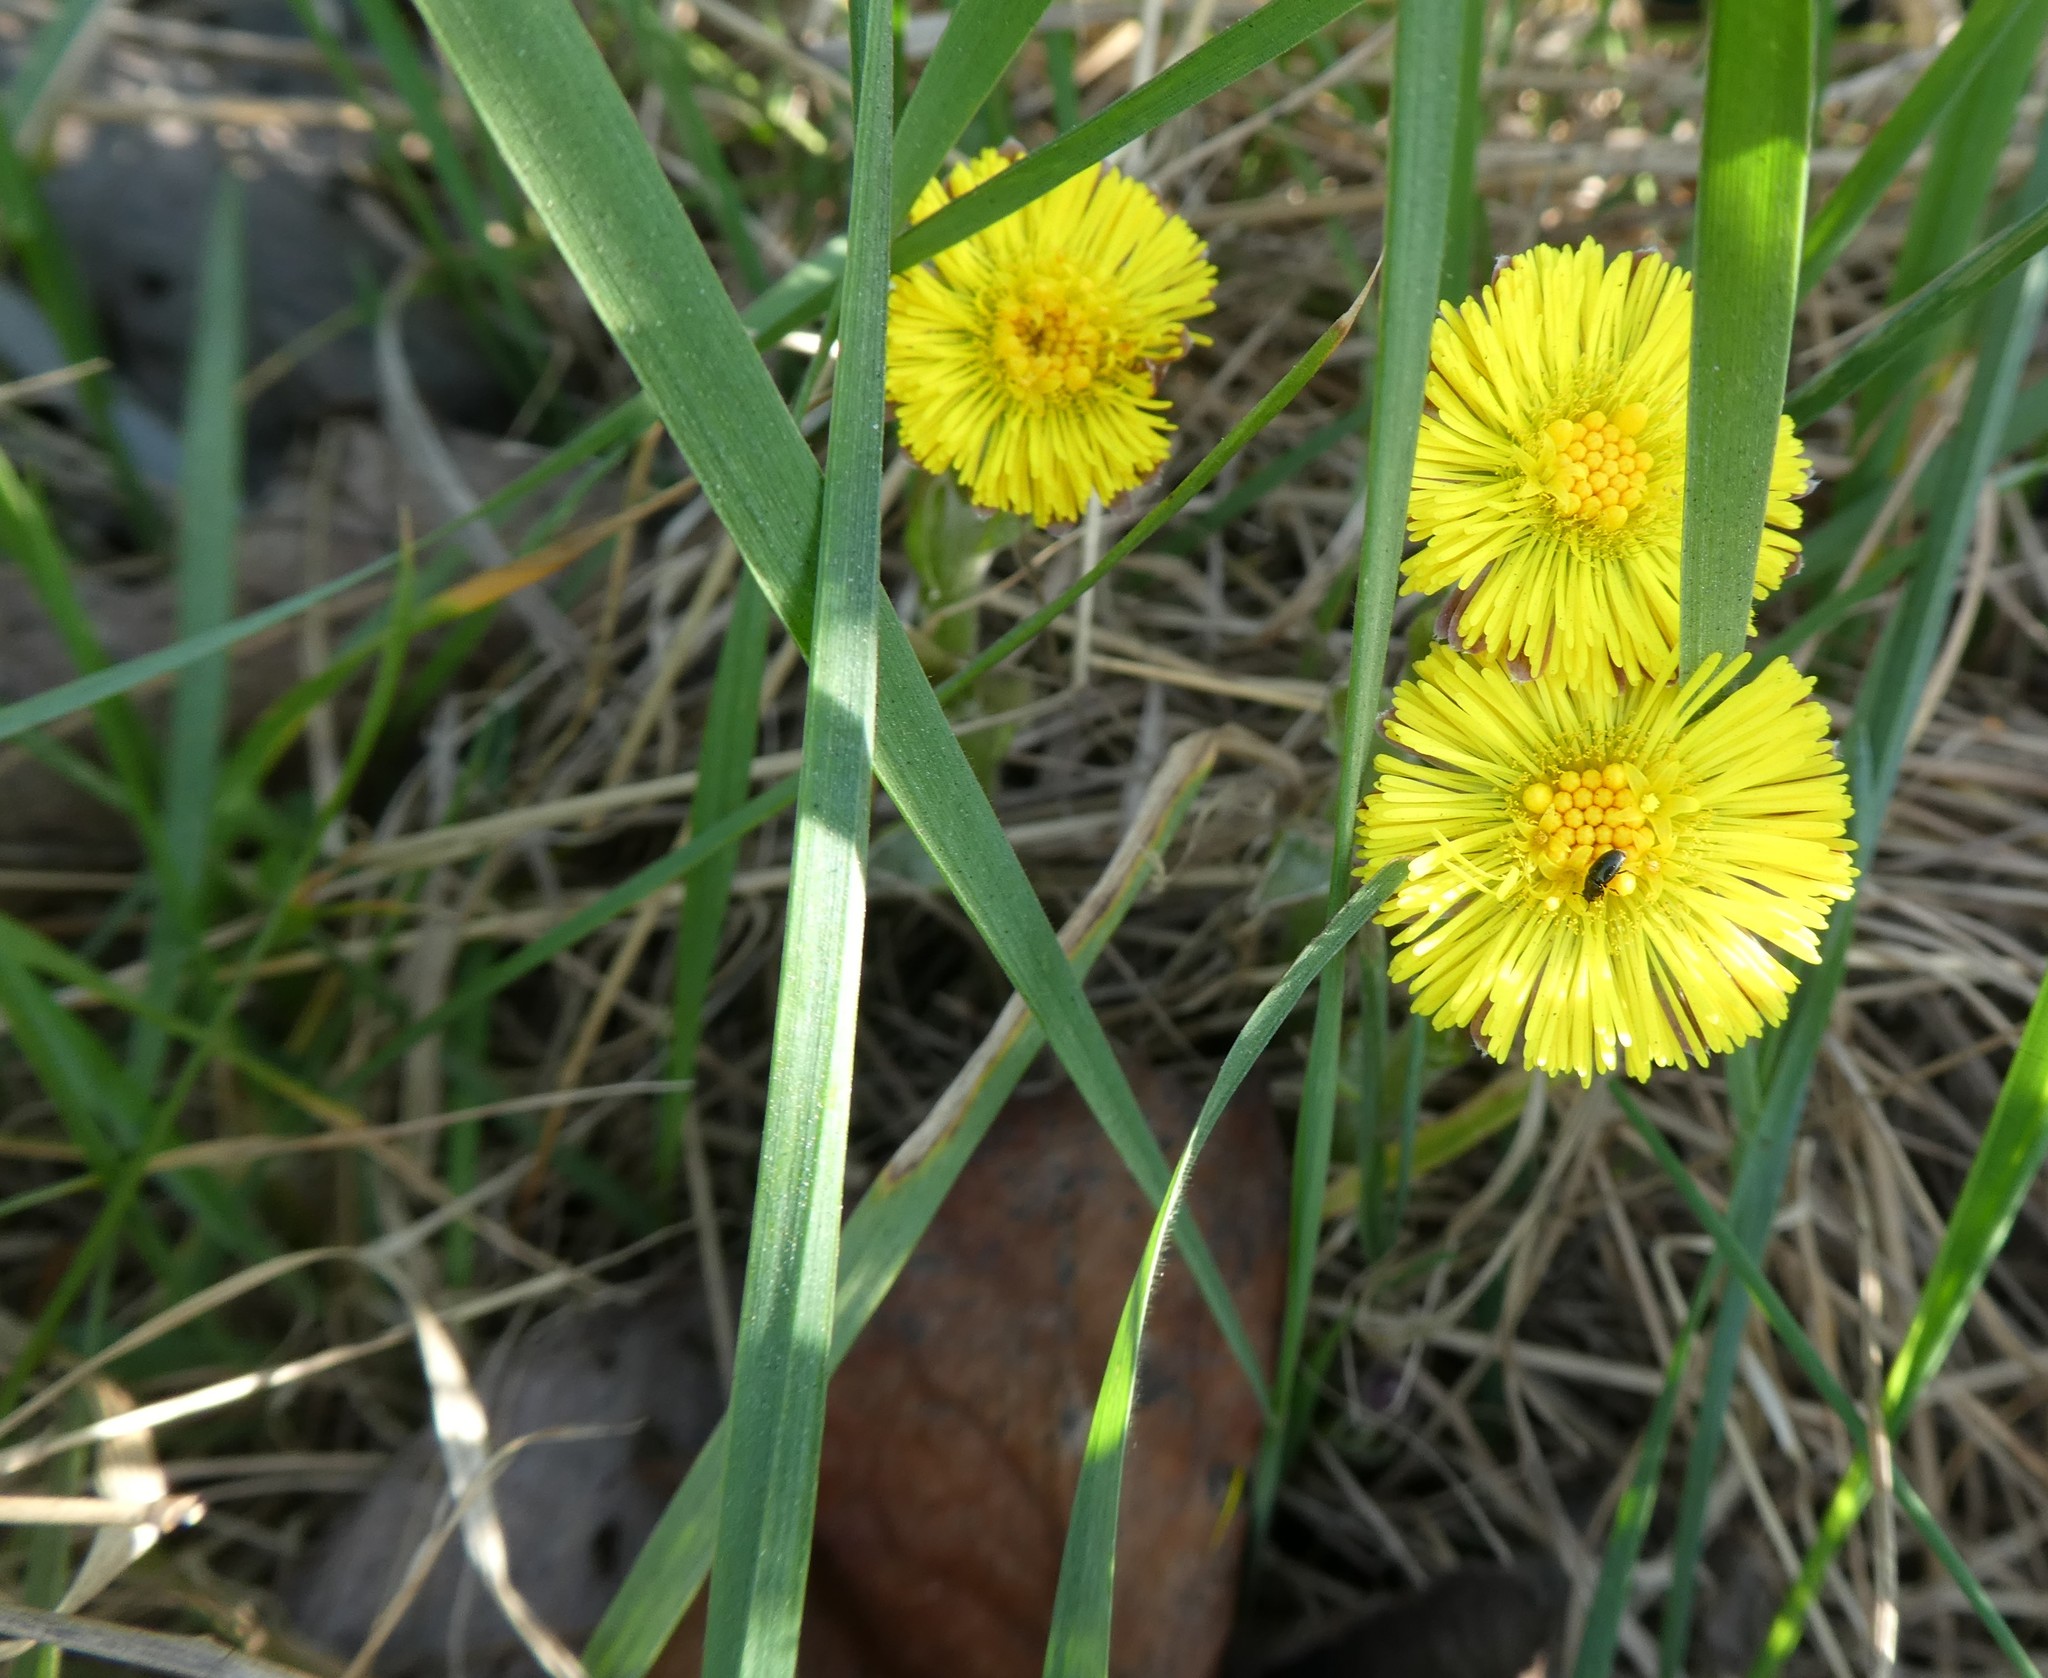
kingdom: Plantae
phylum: Tracheophyta
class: Magnoliopsida
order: Asterales
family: Asteraceae
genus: Tussilago
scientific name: Tussilago farfara
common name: Coltsfoot
